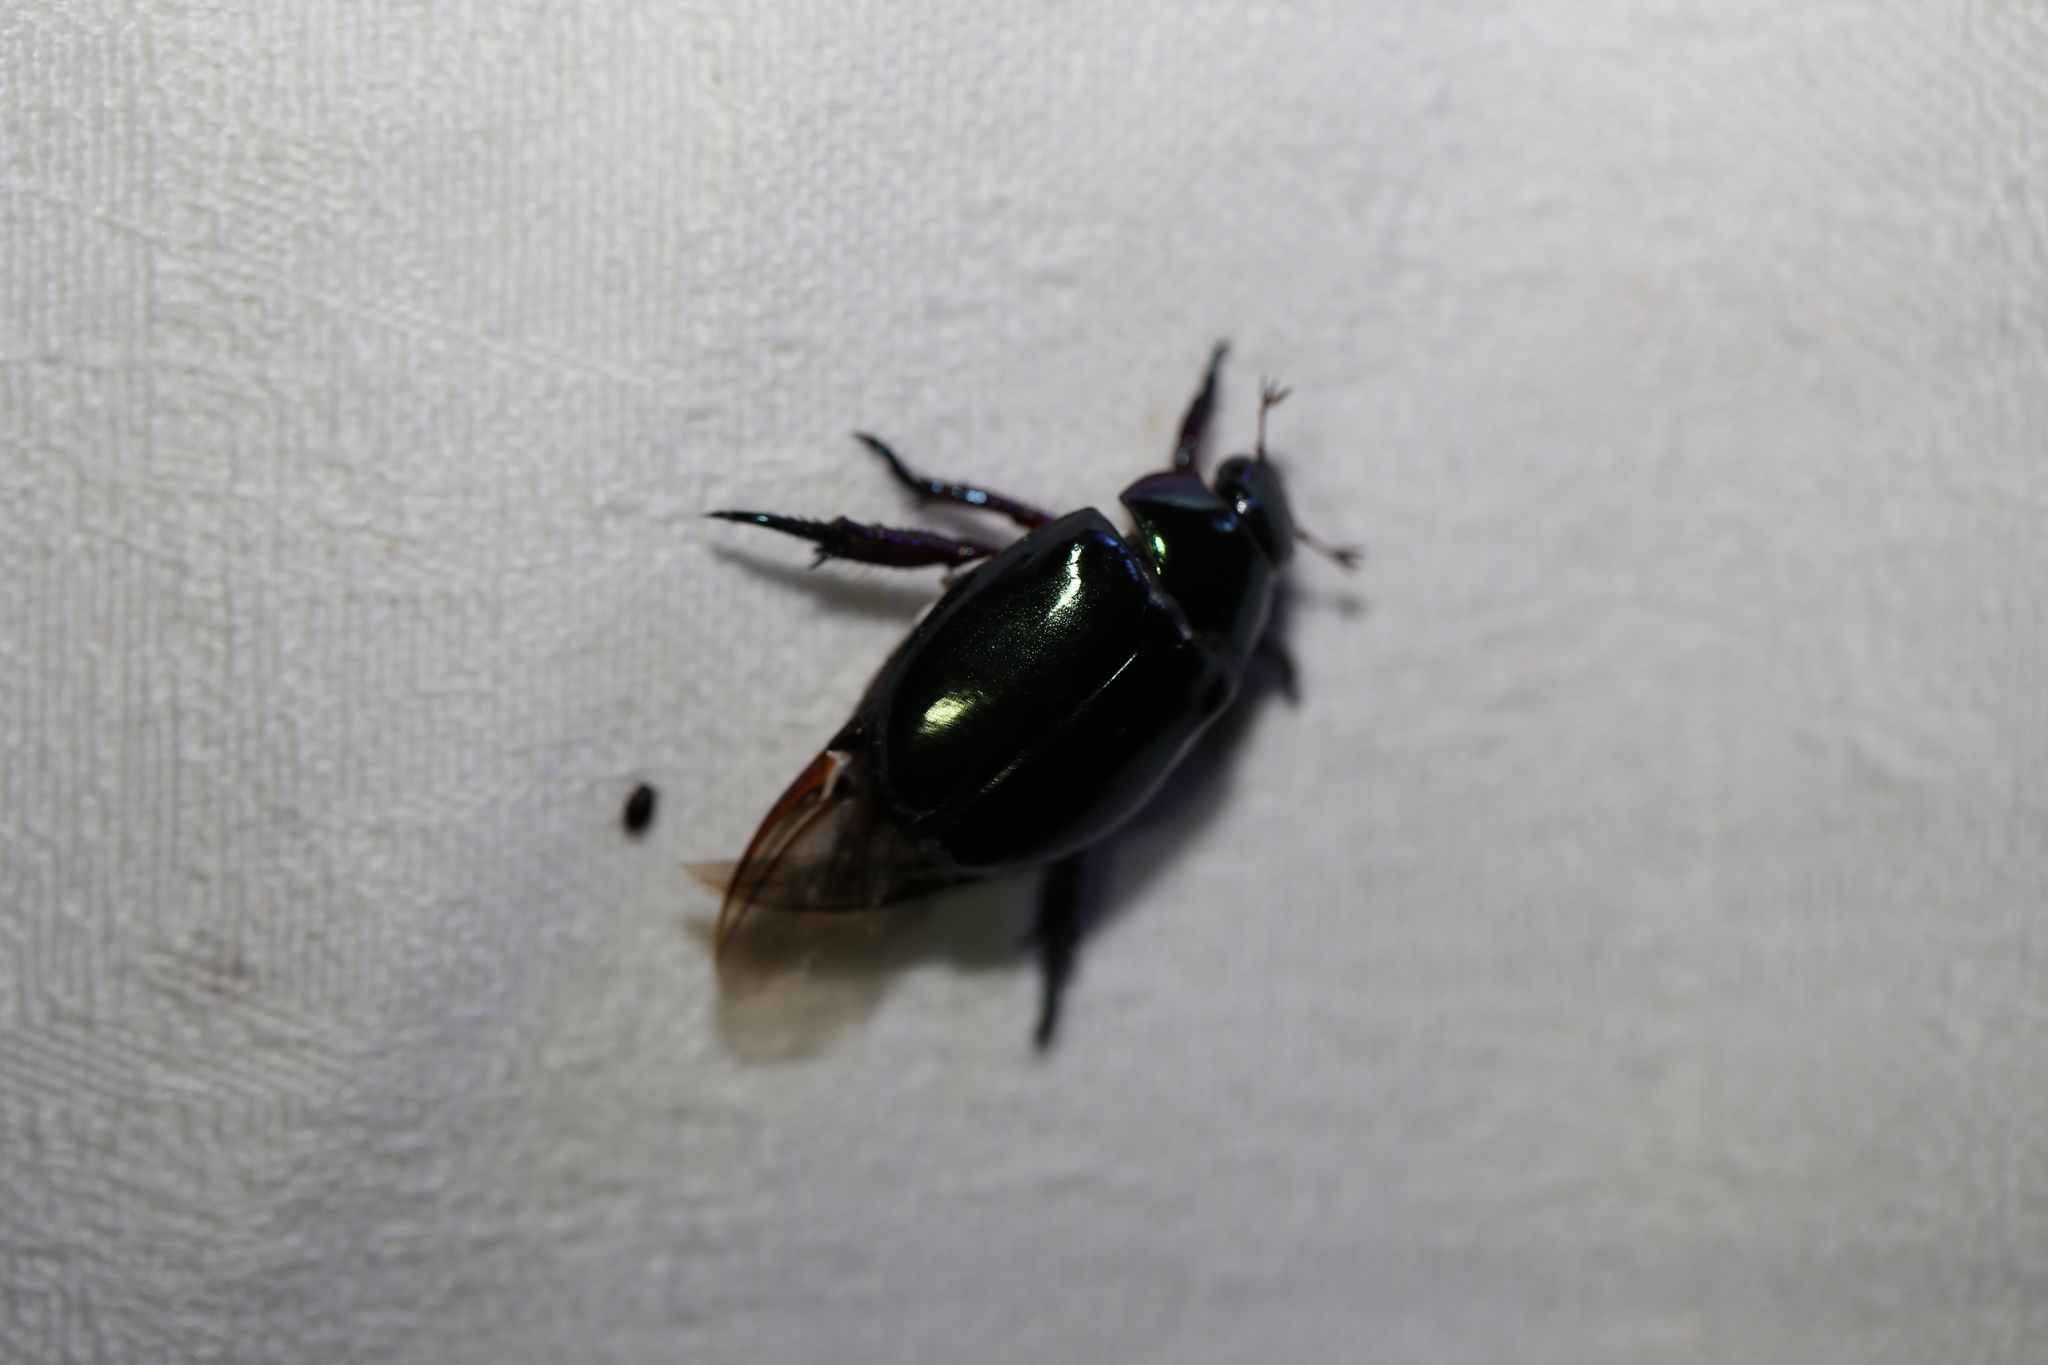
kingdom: Animalia
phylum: Arthropoda
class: Insecta
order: Coleoptera
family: Scarabaeidae
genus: Repsimus
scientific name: Repsimus aeneus
